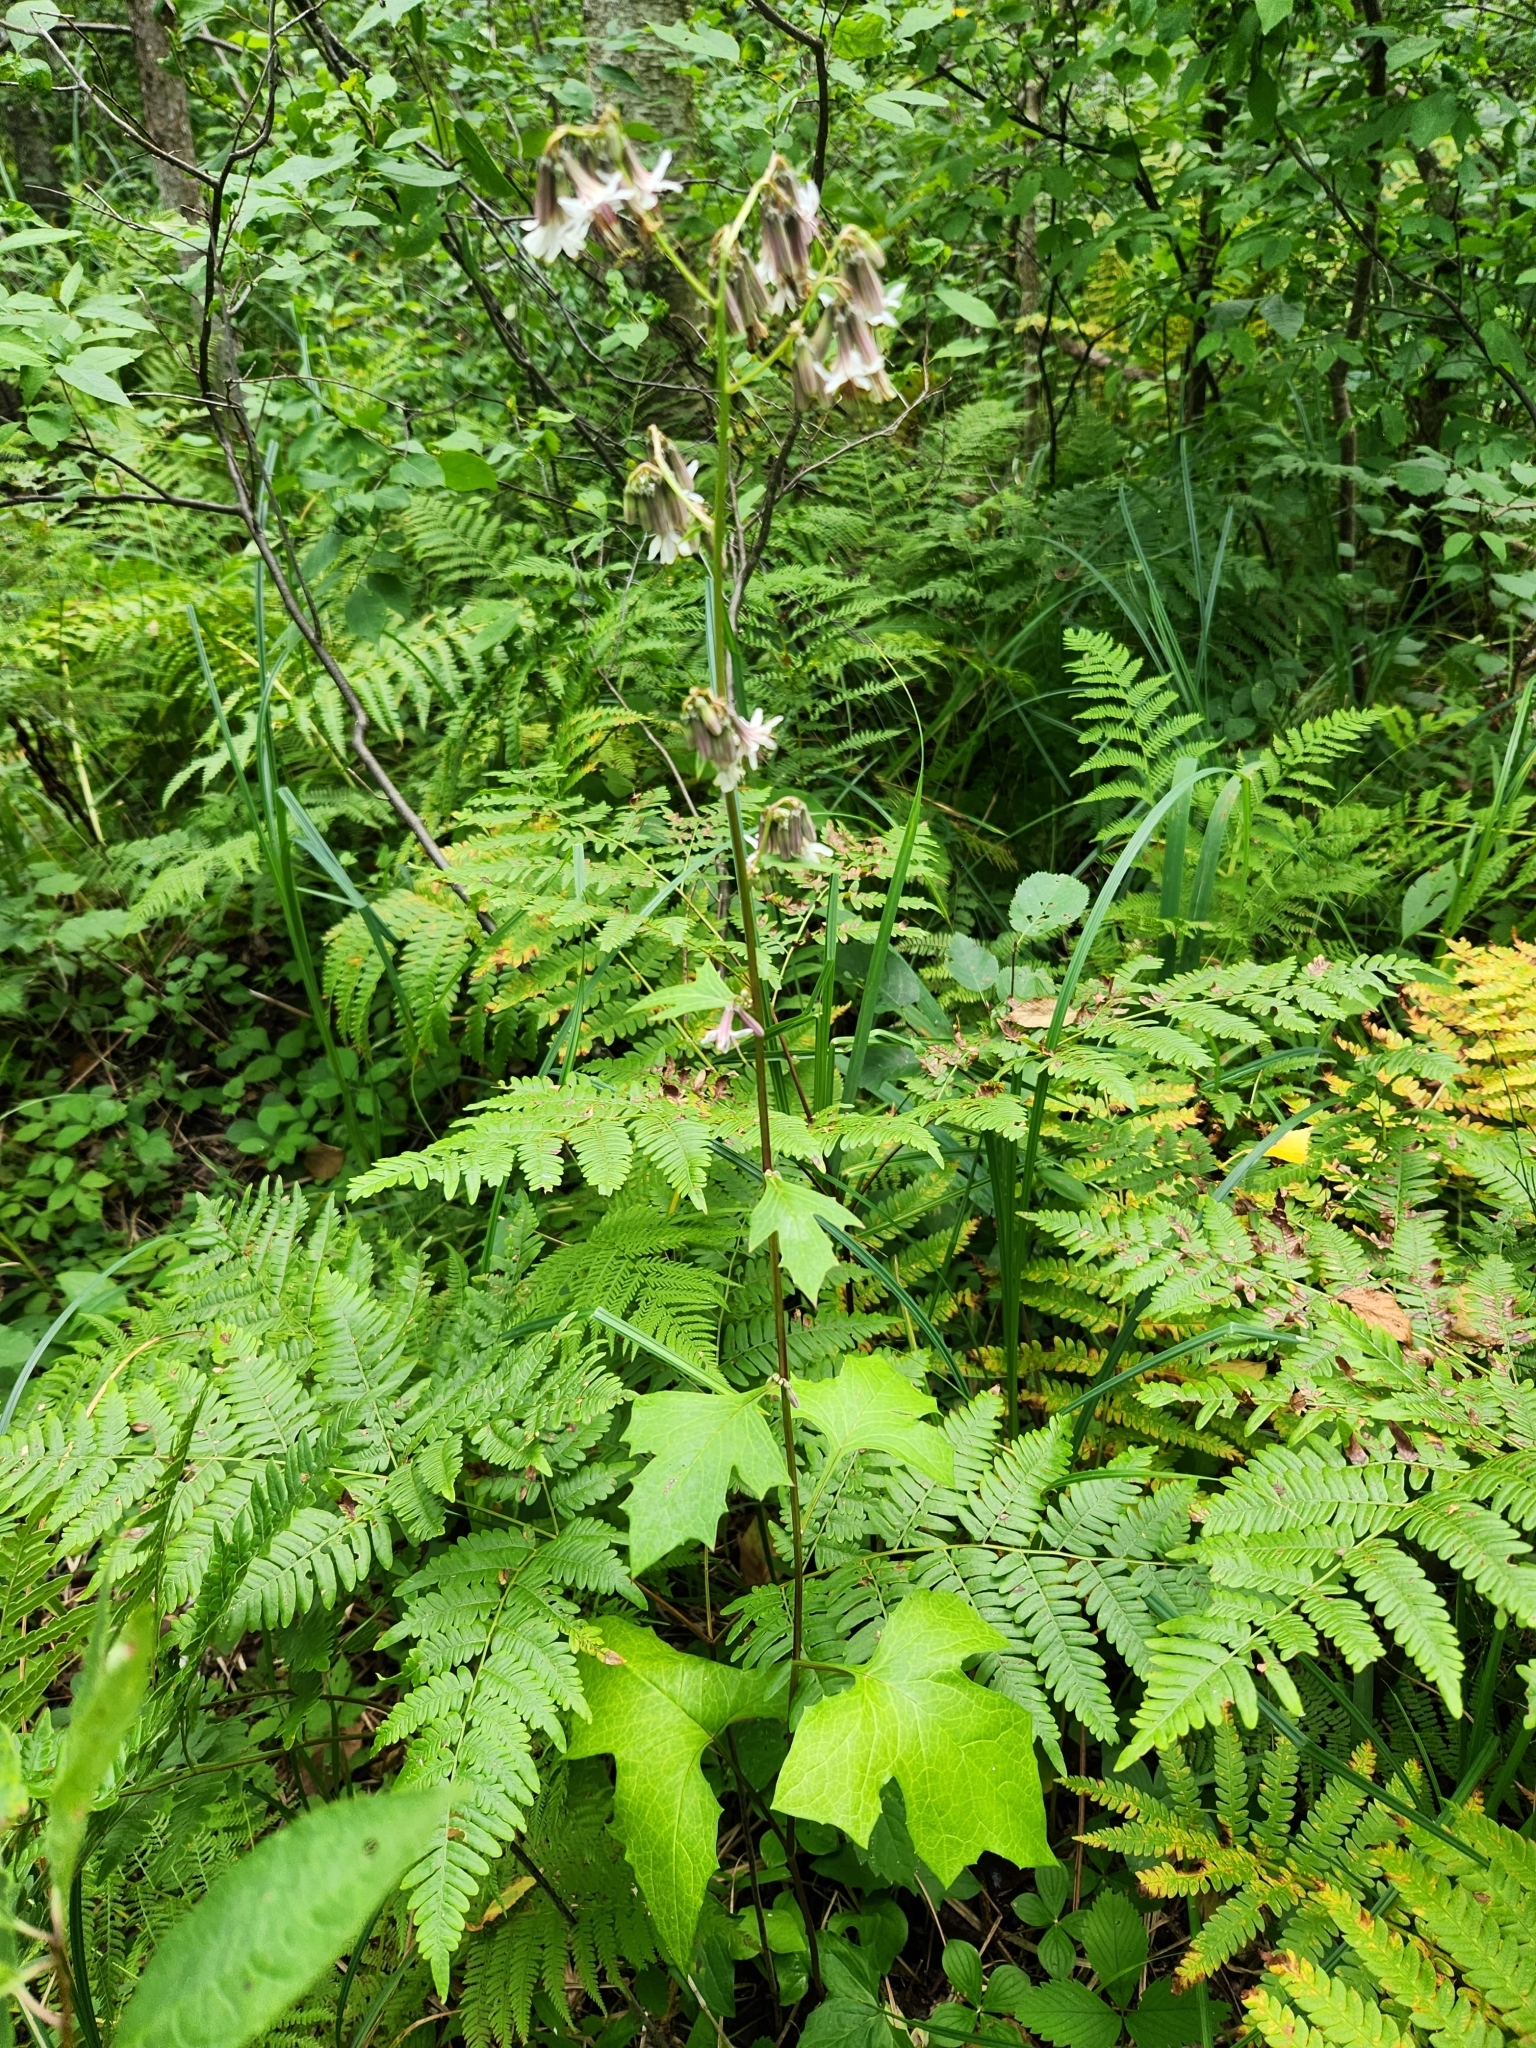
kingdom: Plantae
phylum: Tracheophyta
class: Magnoliopsida
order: Asterales
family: Asteraceae
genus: Nabalus
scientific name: Nabalus albus
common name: White rattlesnakeroot
